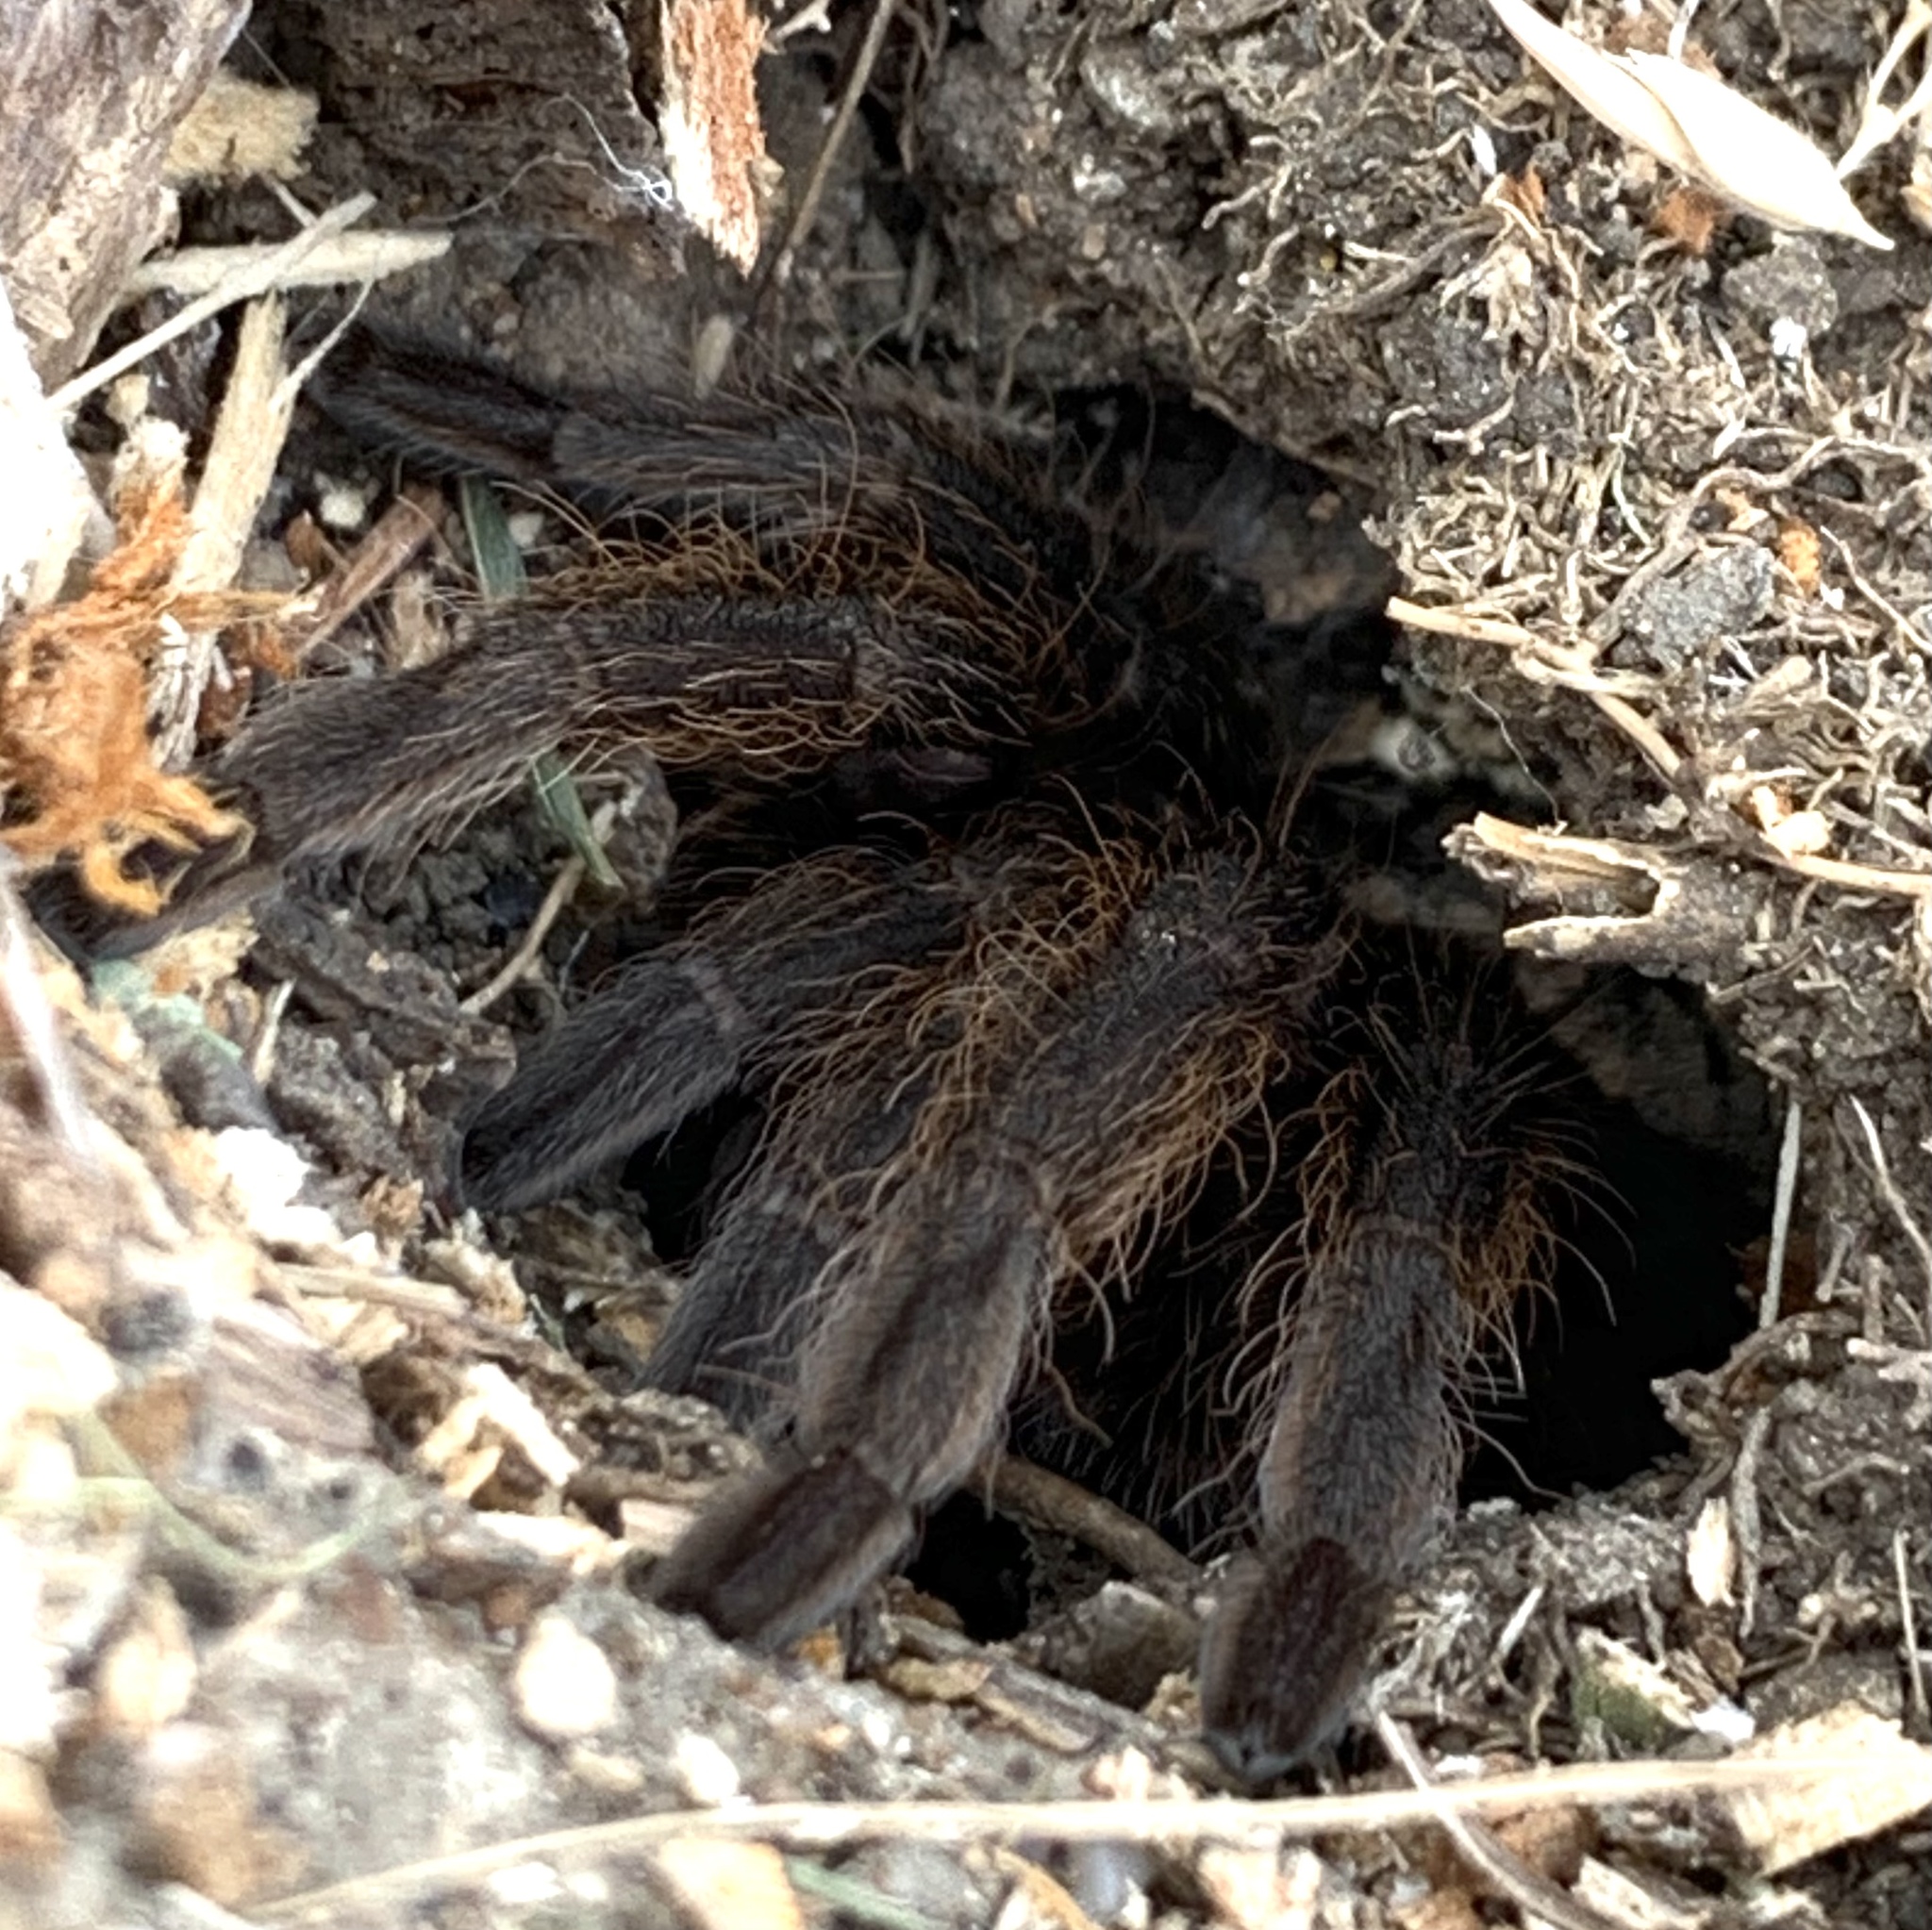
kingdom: Animalia
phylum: Arthropoda
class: Arachnida
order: Araneae
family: Theraphosidae
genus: Aphonopelma
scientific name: Aphonopelma hentzi
